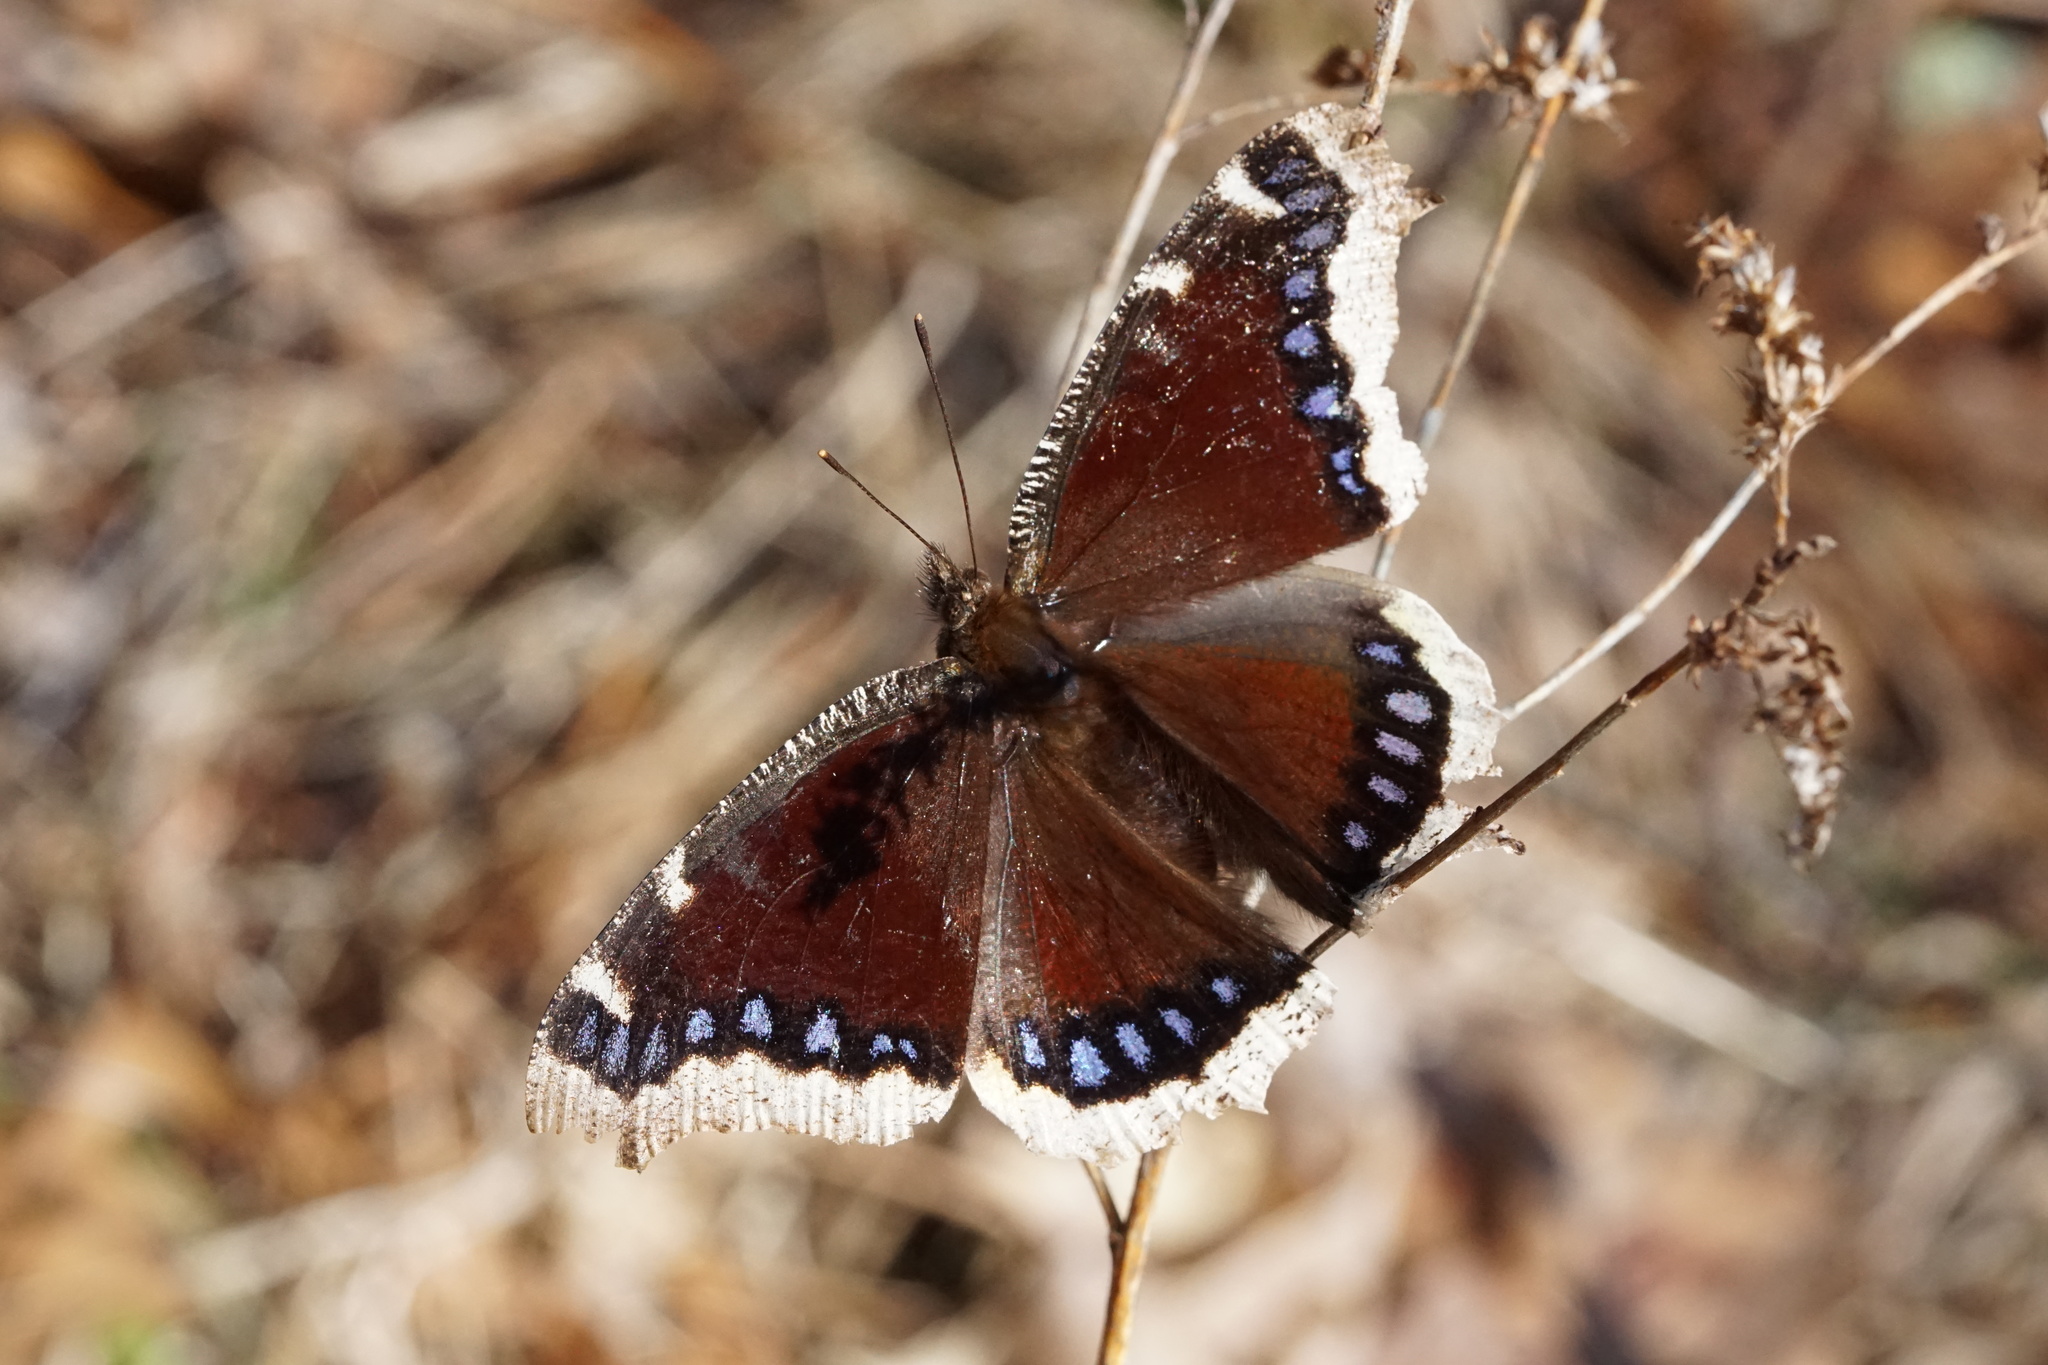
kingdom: Animalia
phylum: Arthropoda
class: Insecta
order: Lepidoptera
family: Nymphalidae
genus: Nymphalis
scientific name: Nymphalis antiopa
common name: Camberwell beauty
